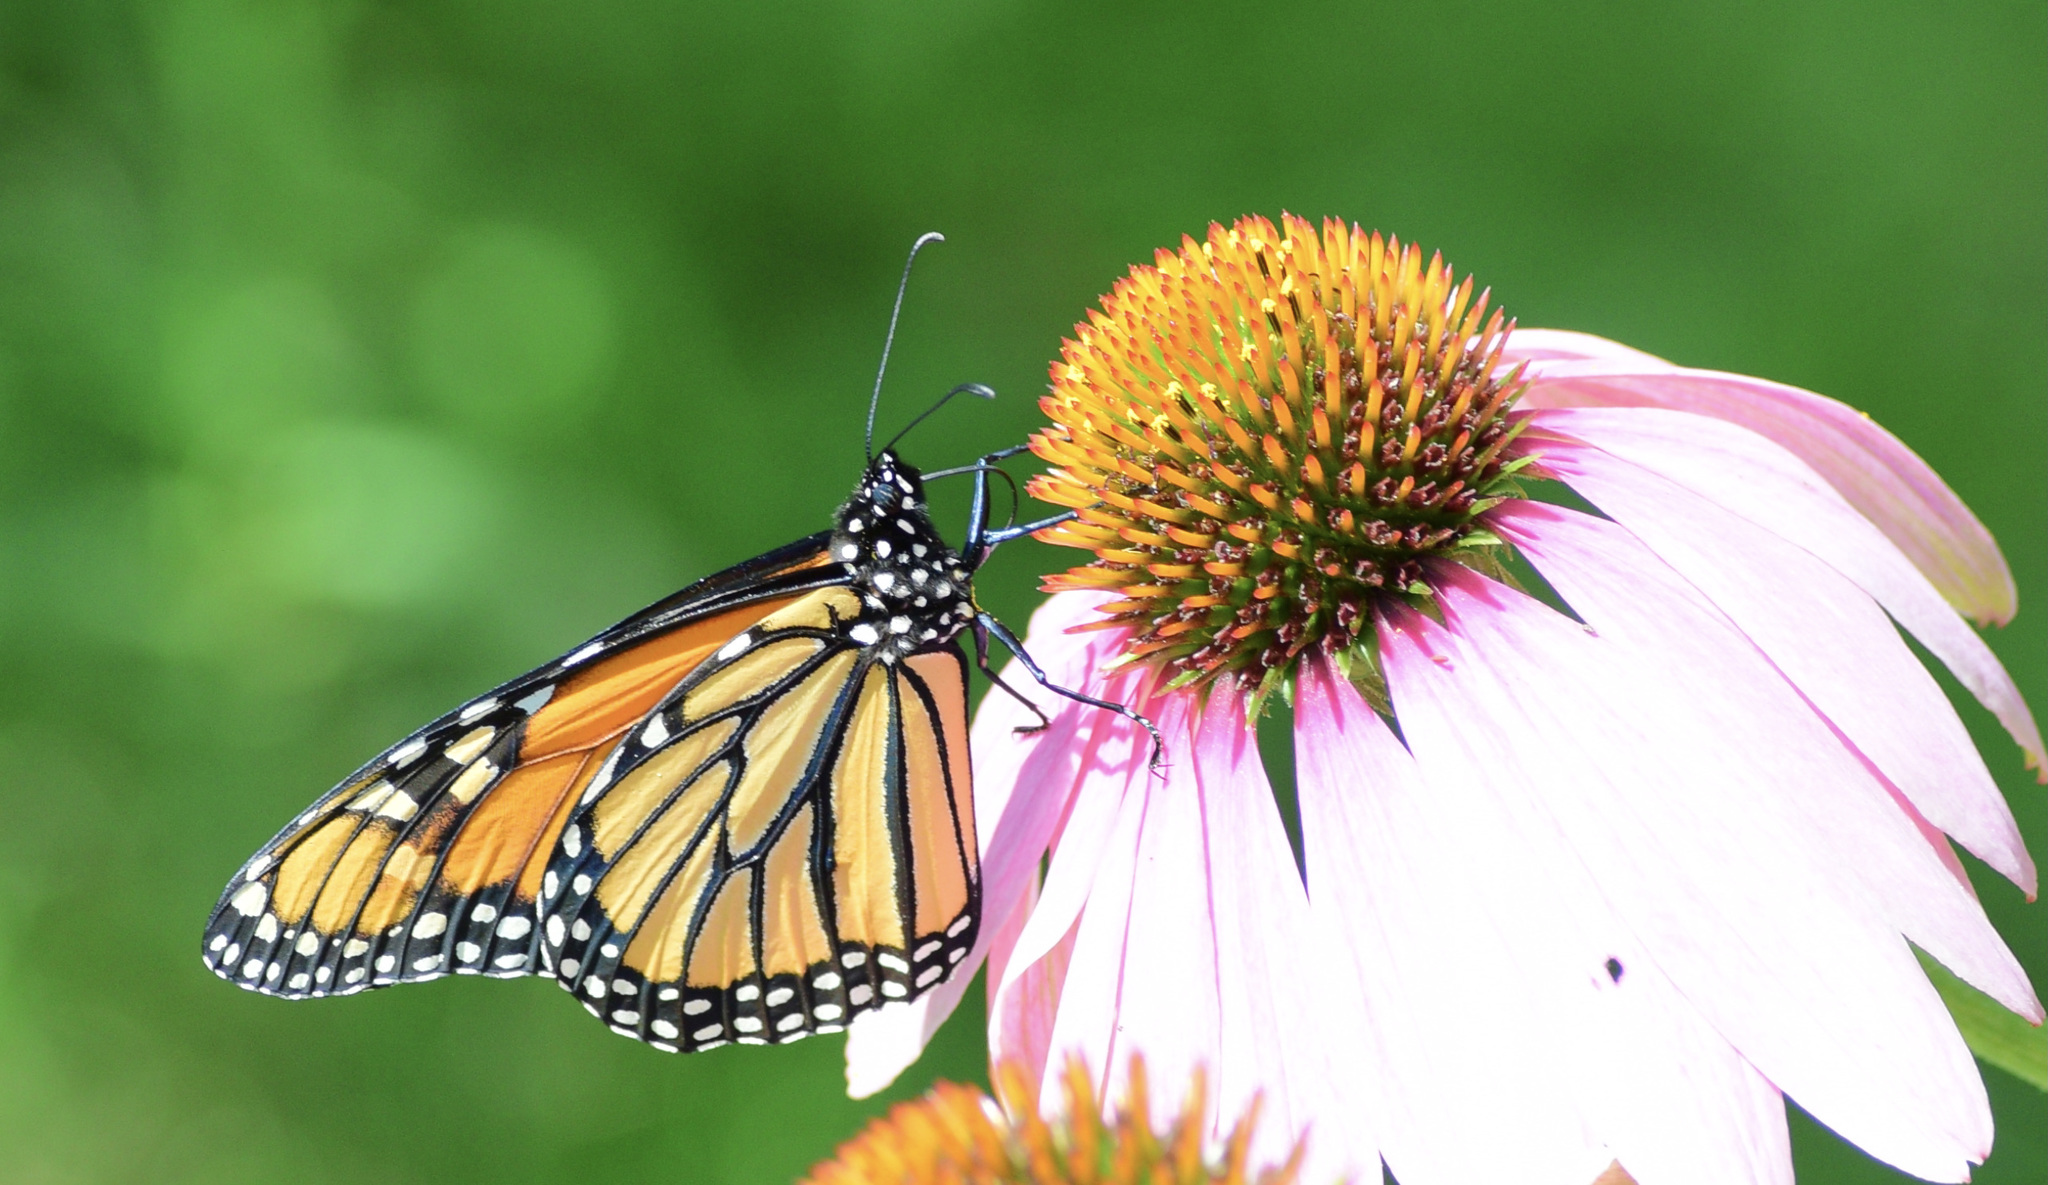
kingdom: Animalia
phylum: Arthropoda
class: Insecta
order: Lepidoptera
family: Nymphalidae
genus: Danaus
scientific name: Danaus plexippus
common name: Monarch
